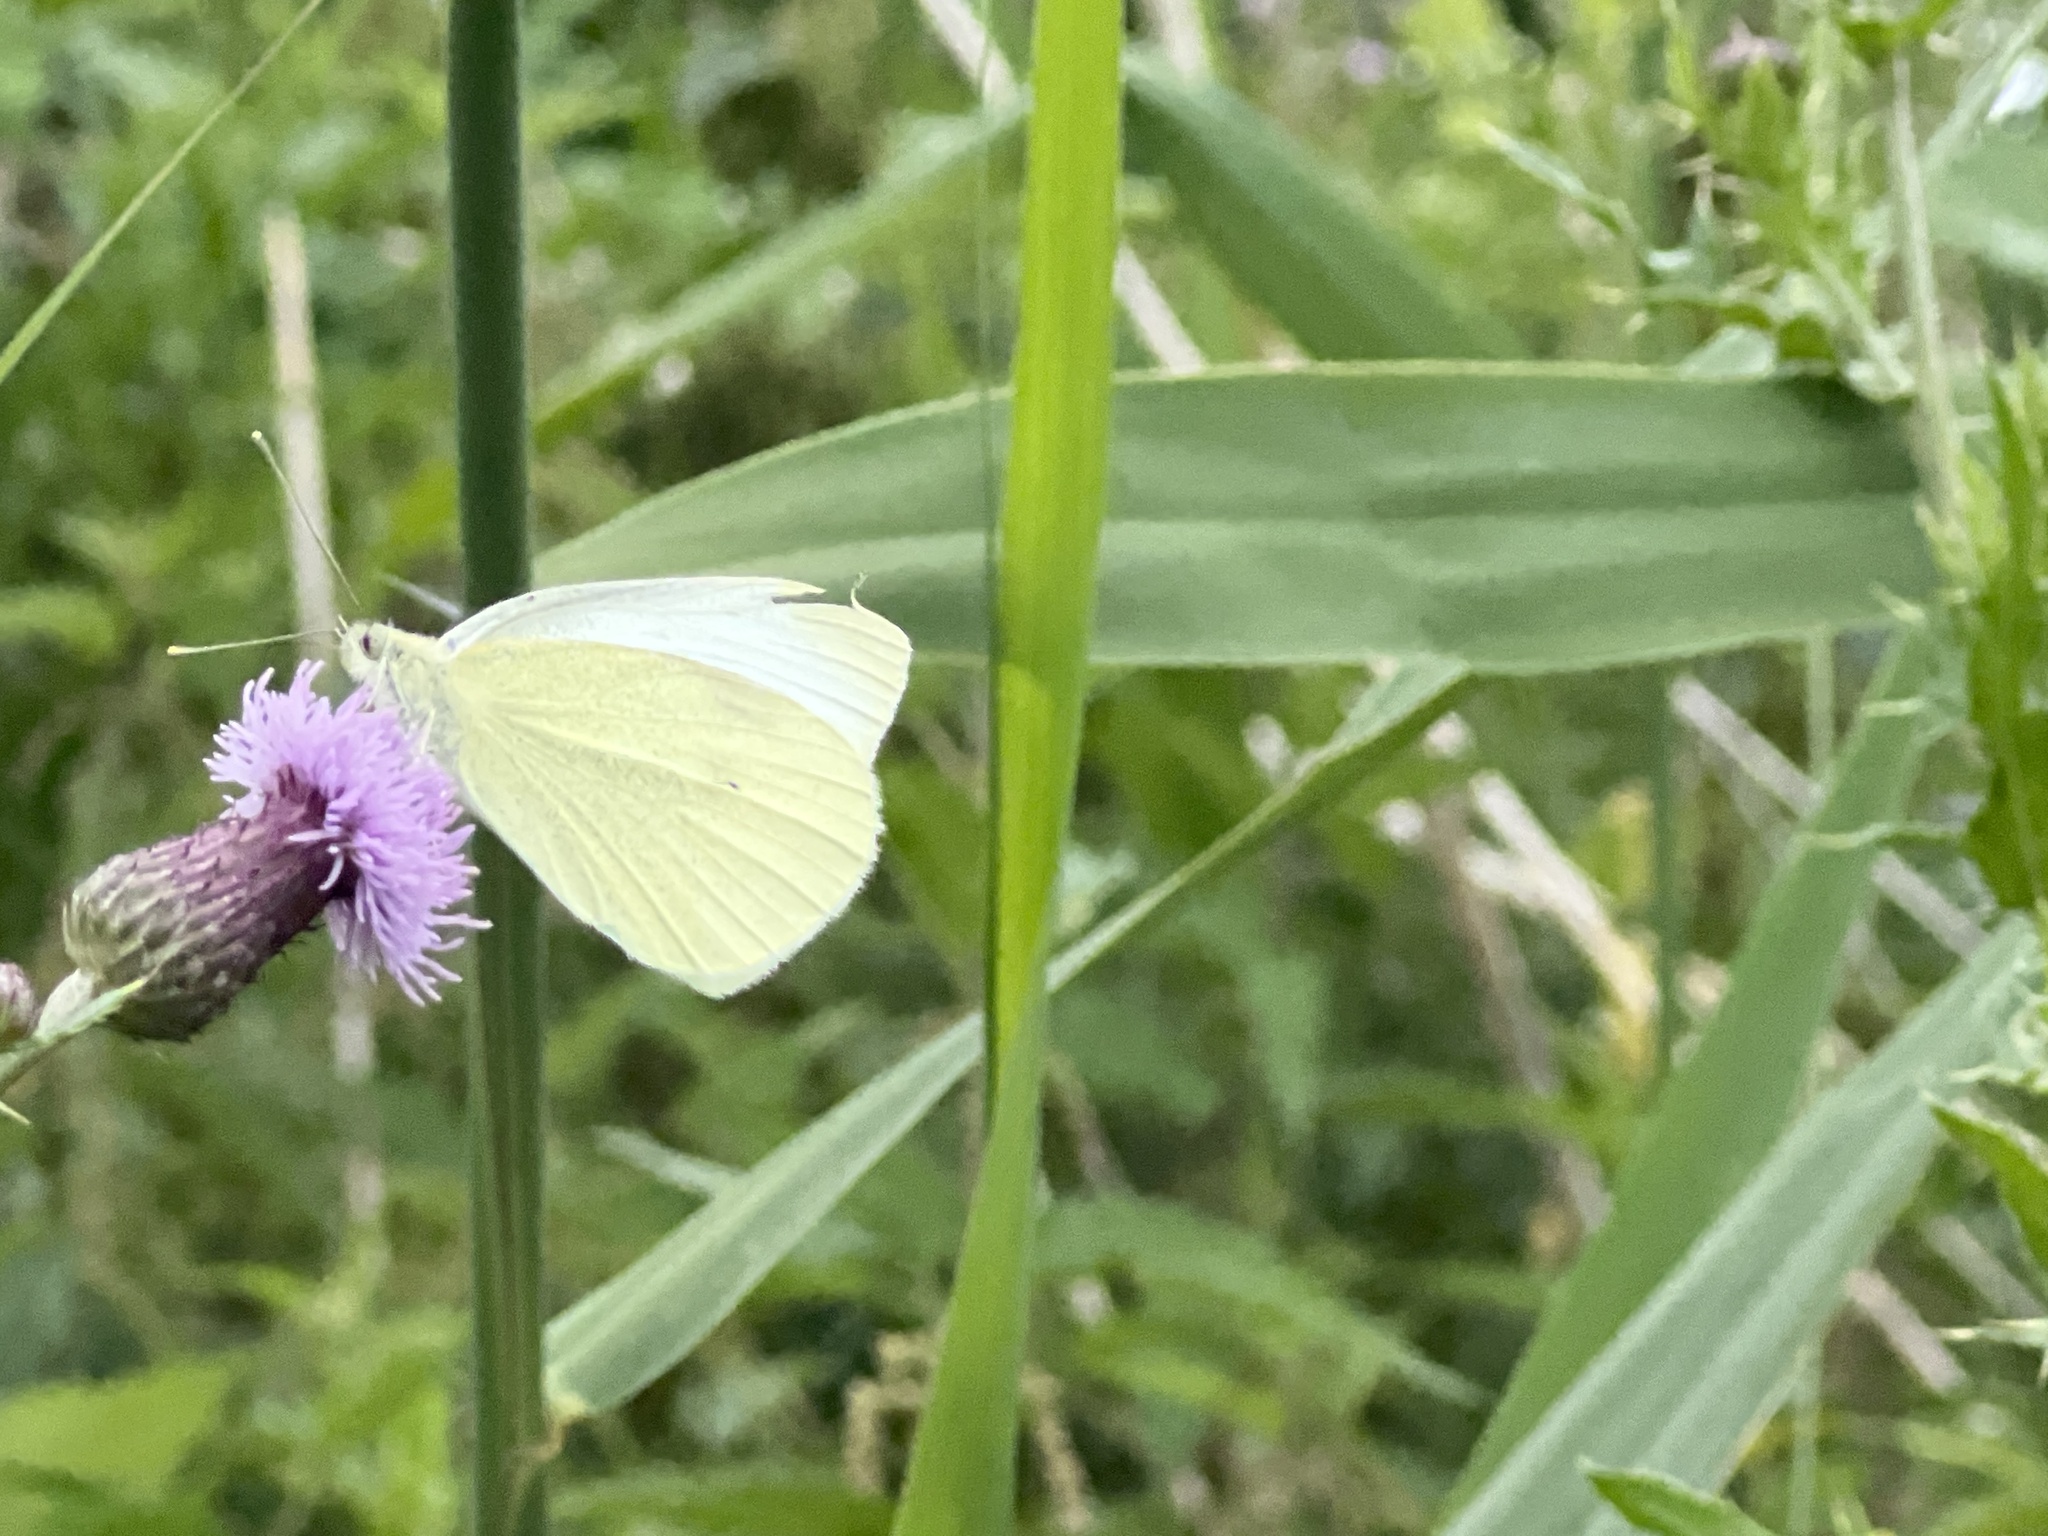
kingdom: Animalia
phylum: Arthropoda
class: Insecta
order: Lepidoptera
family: Pieridae
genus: Pieris
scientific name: Pieris rapae
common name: Small white
